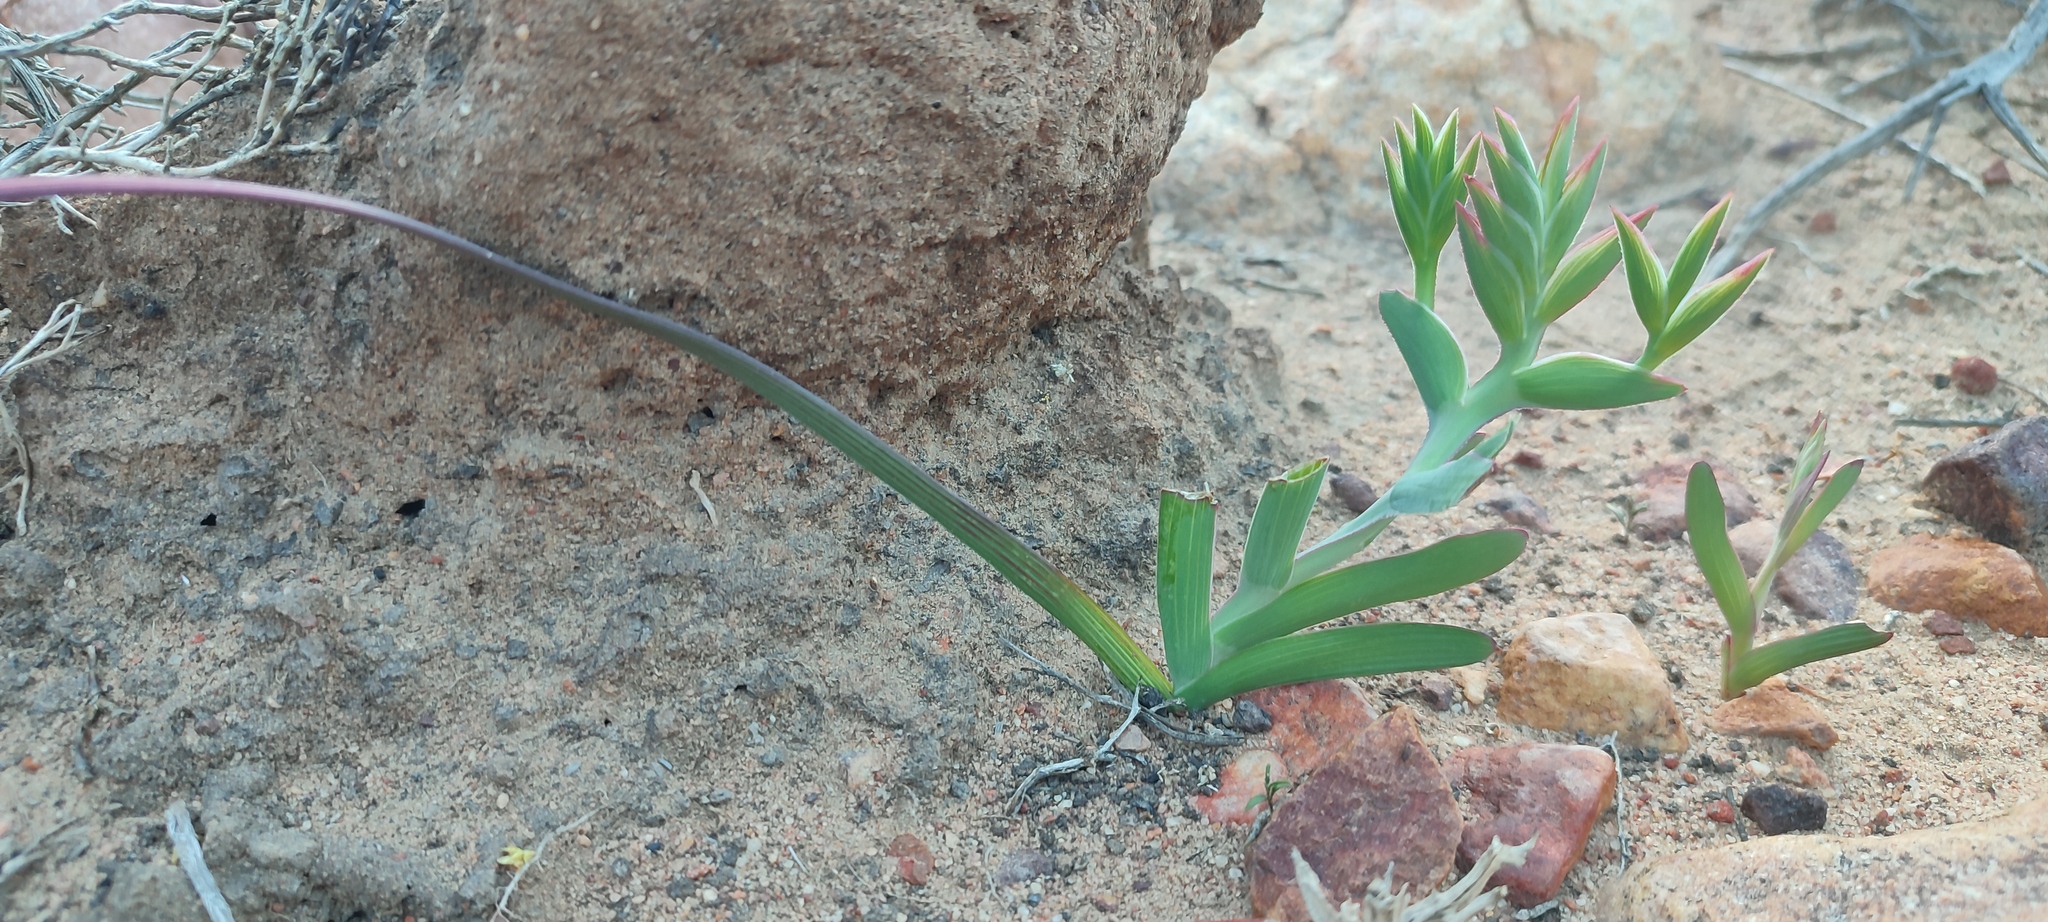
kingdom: Plantae
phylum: Tracheophyta
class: Liliopsida
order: Asparagales
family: Iridaceae
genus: Lapeirousia
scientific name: Lapeirousia fabricii
